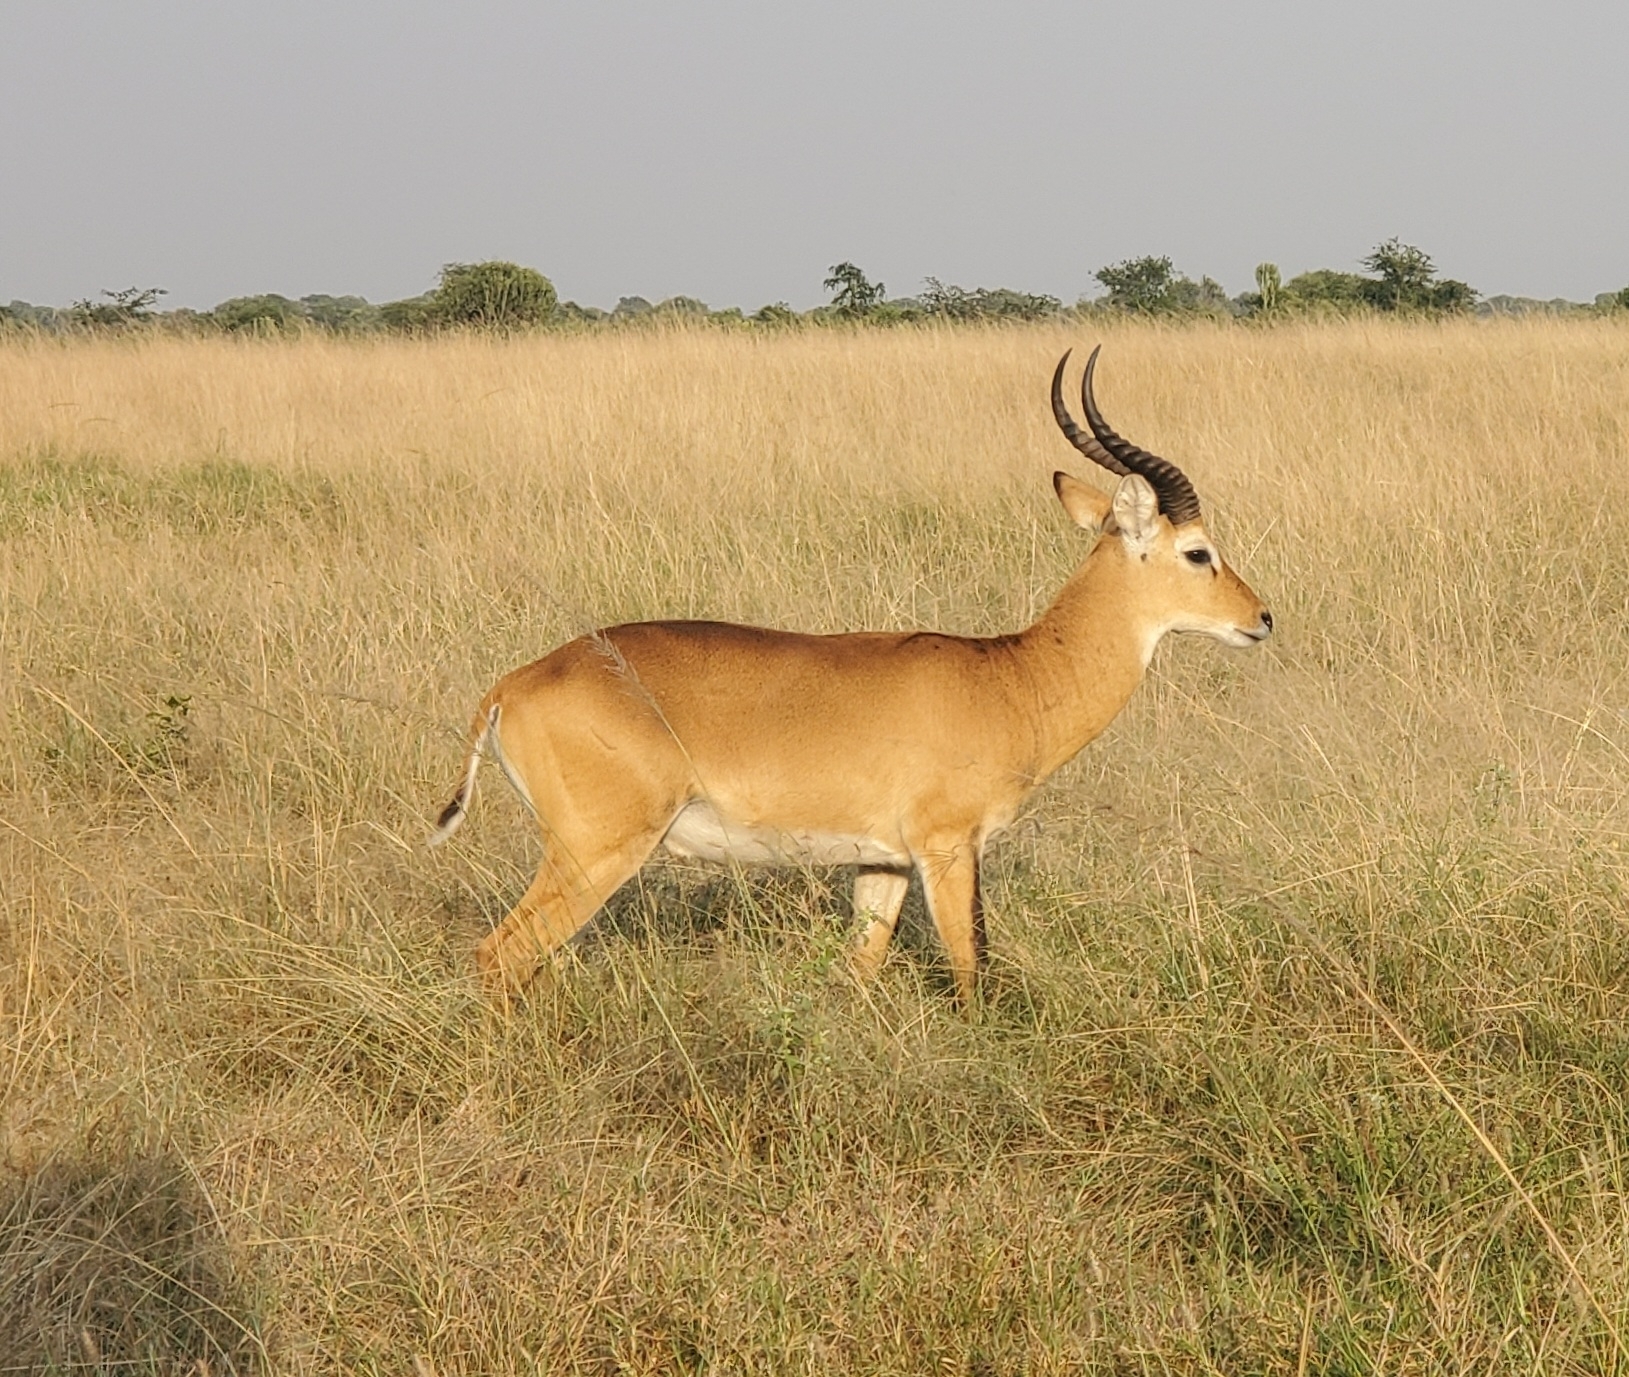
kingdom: Animalia
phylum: Chordata
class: Mammalia
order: Artiodactyla
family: Bovidae
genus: Kobus
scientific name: Kobus kob
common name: Kob
